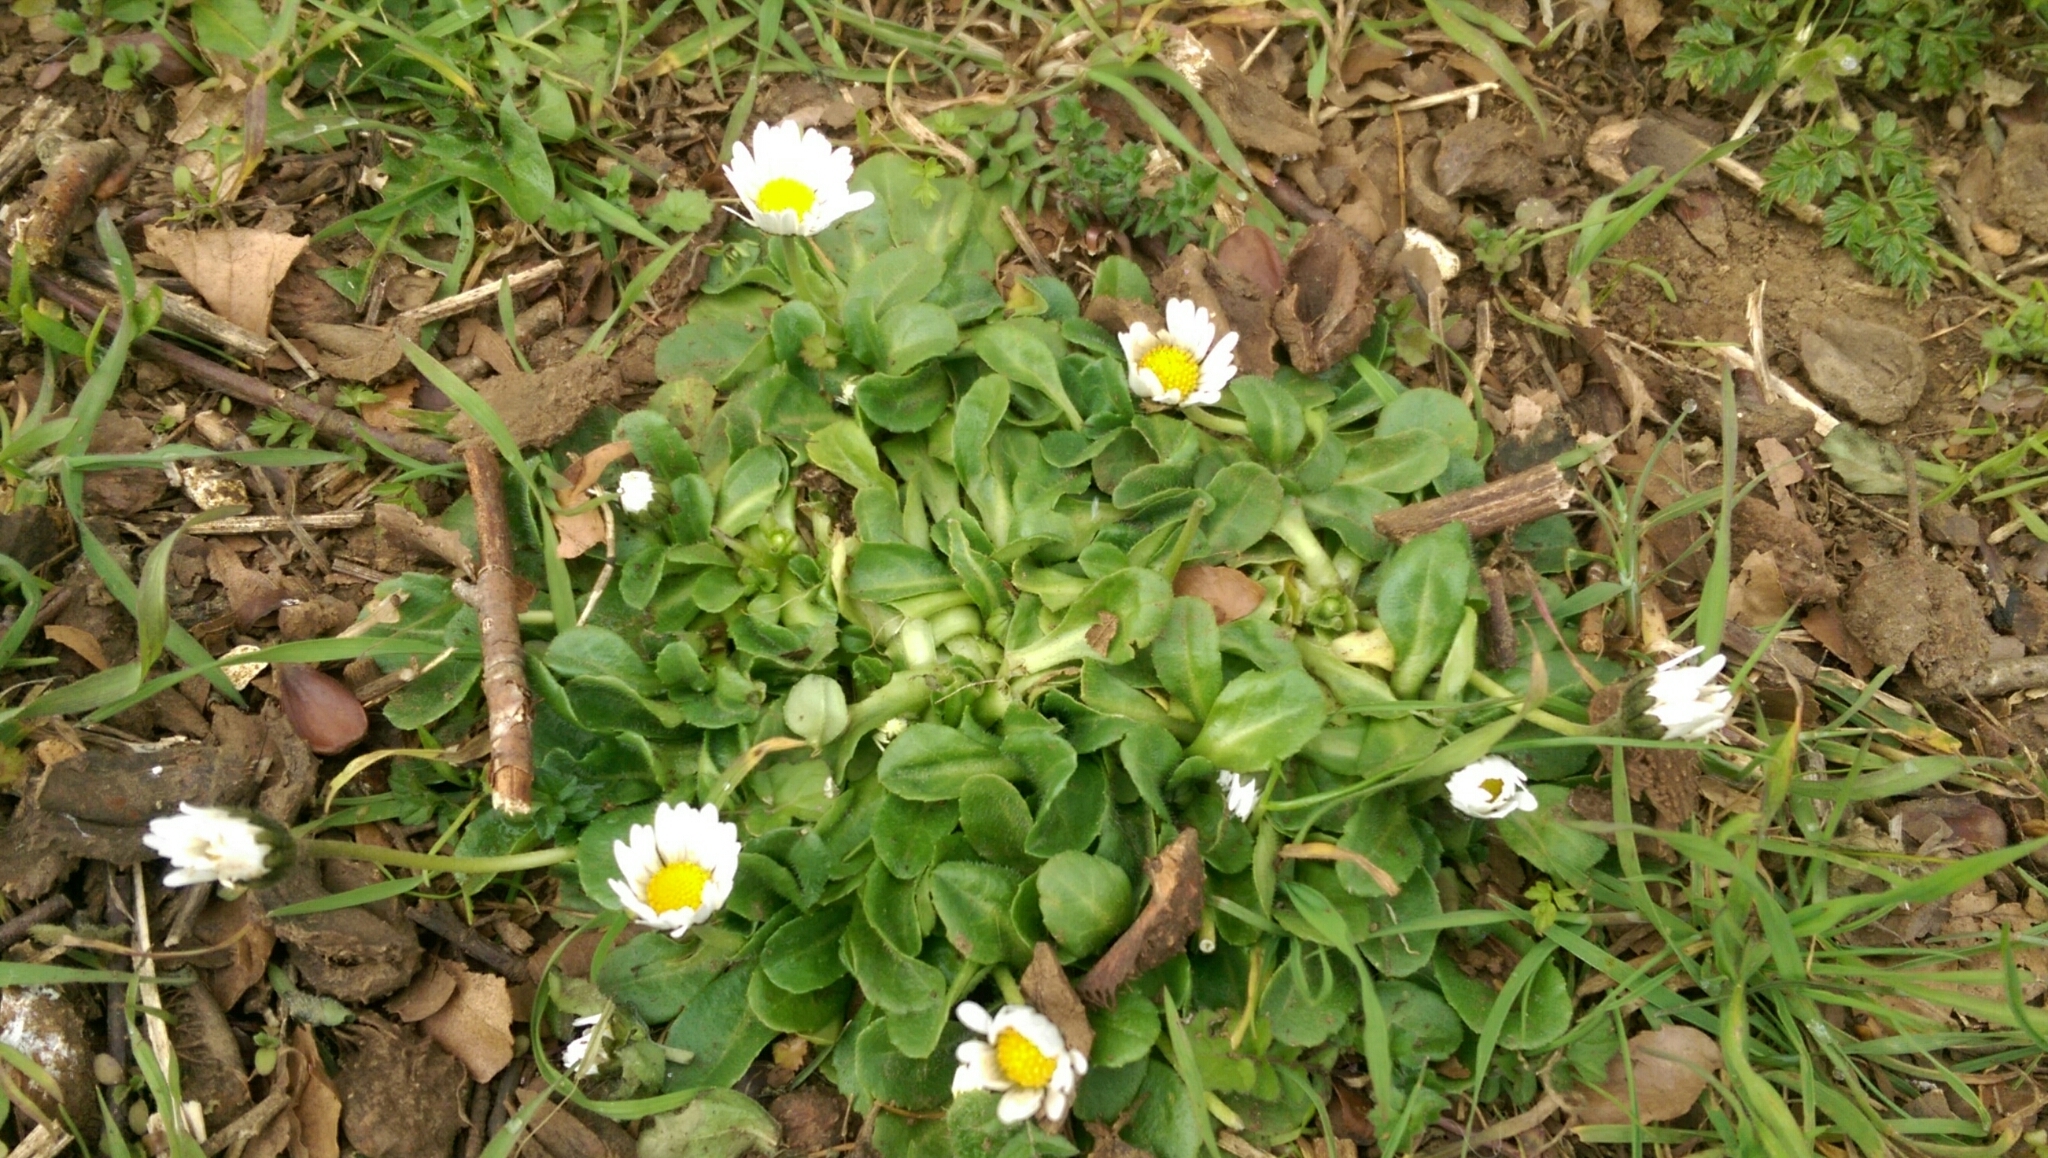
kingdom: Plantae
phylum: Tracheophyta
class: Magnoliopsida
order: Asterales
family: Asteraceae
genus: Bellis
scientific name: Bellis perennis
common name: Lawndaisy
